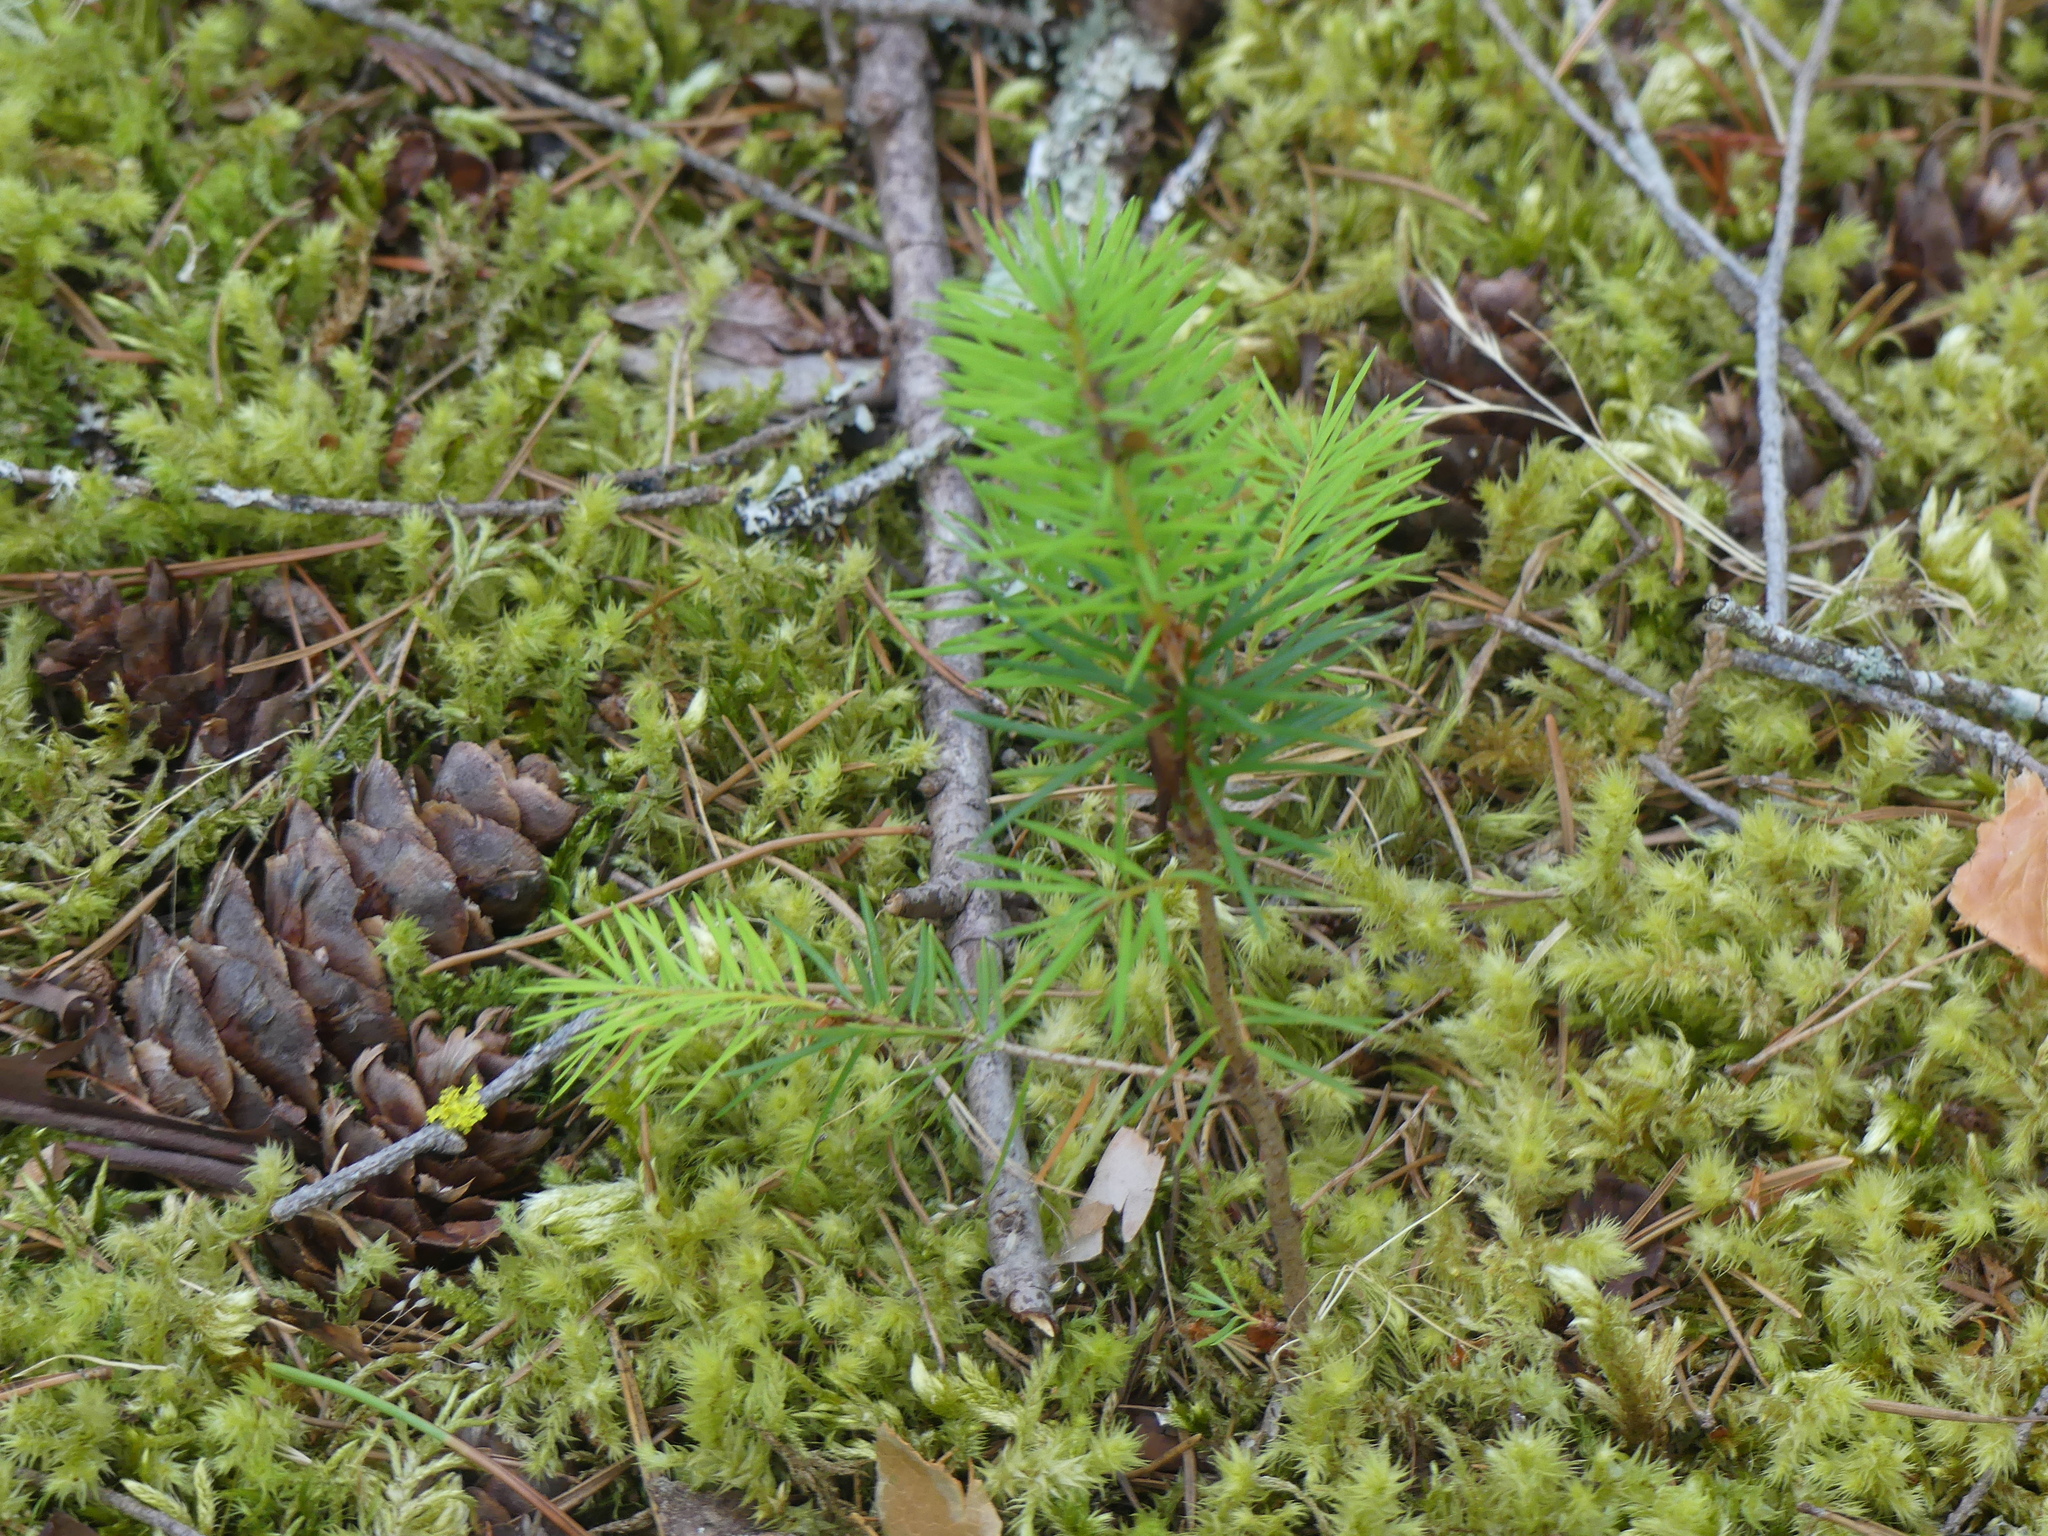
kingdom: Plantae
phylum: Tracheophyta
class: Pinopsida
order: Pinales
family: Pinaceae
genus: Pseudotsuga
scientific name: Pseudotsuga menziesii
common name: Douglas fir
